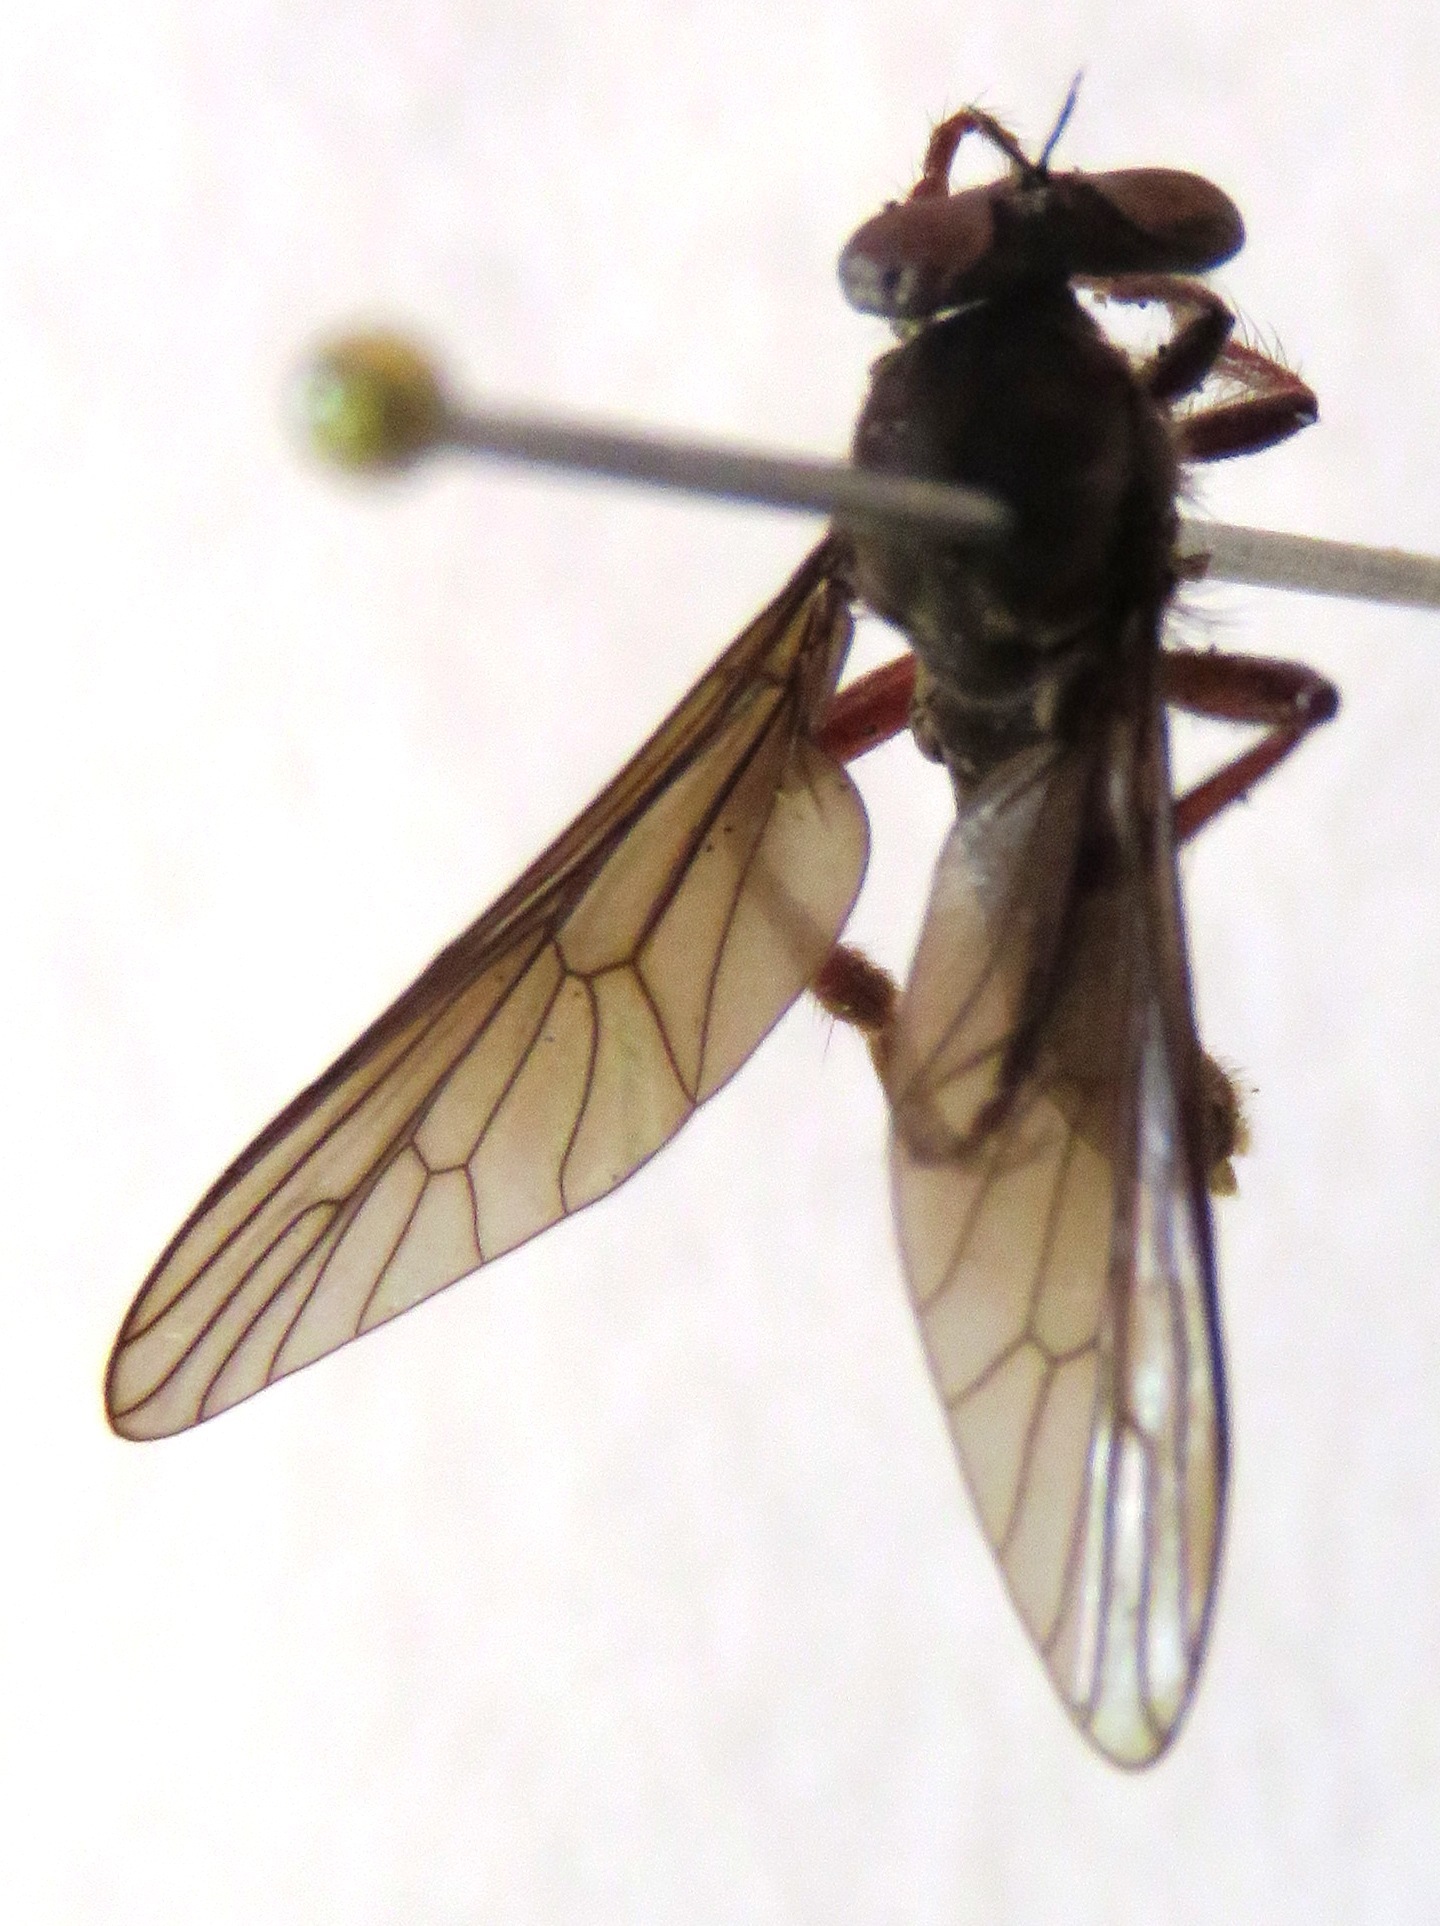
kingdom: Animalia
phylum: Arthropoda
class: Insecta
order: Diptera
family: Asilidae
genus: Holcocephala
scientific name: Holcocephala
